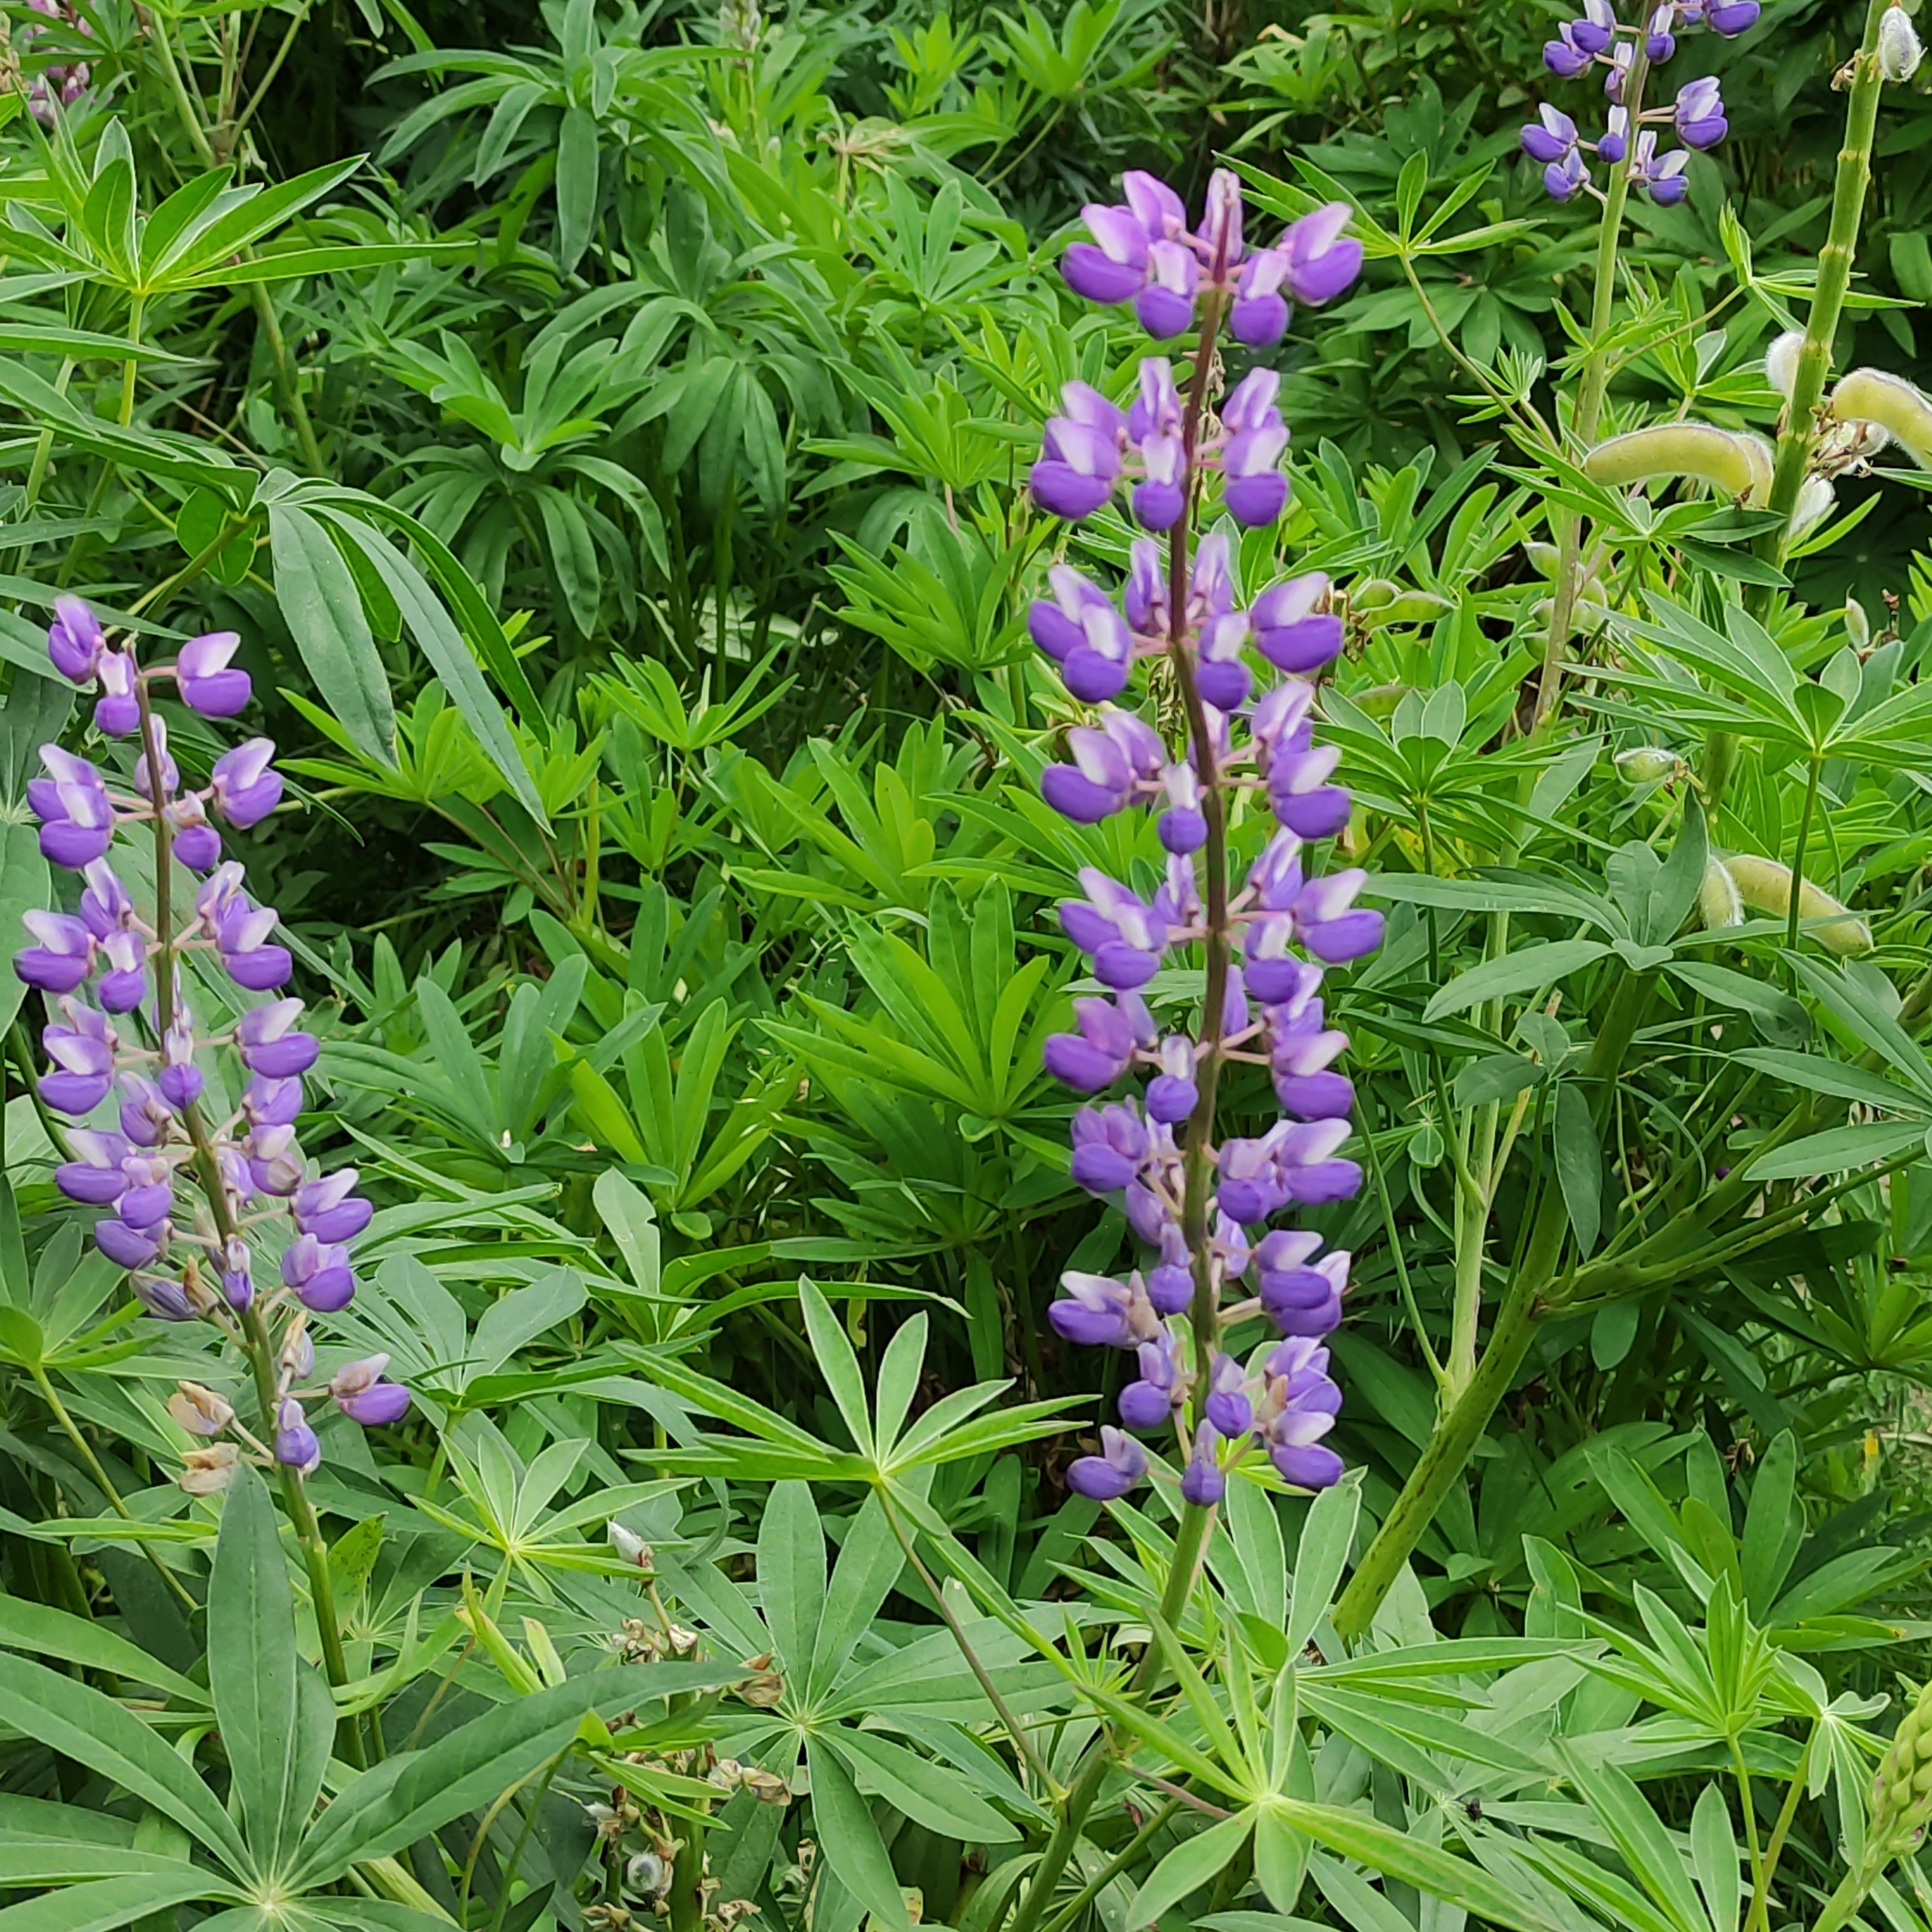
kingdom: Plantae
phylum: Tracheophyta
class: Magnoliopsida
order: Fabales
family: Fabaceae
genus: Lupinus
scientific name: Lupinus polyphyllus
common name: Garden lupin
